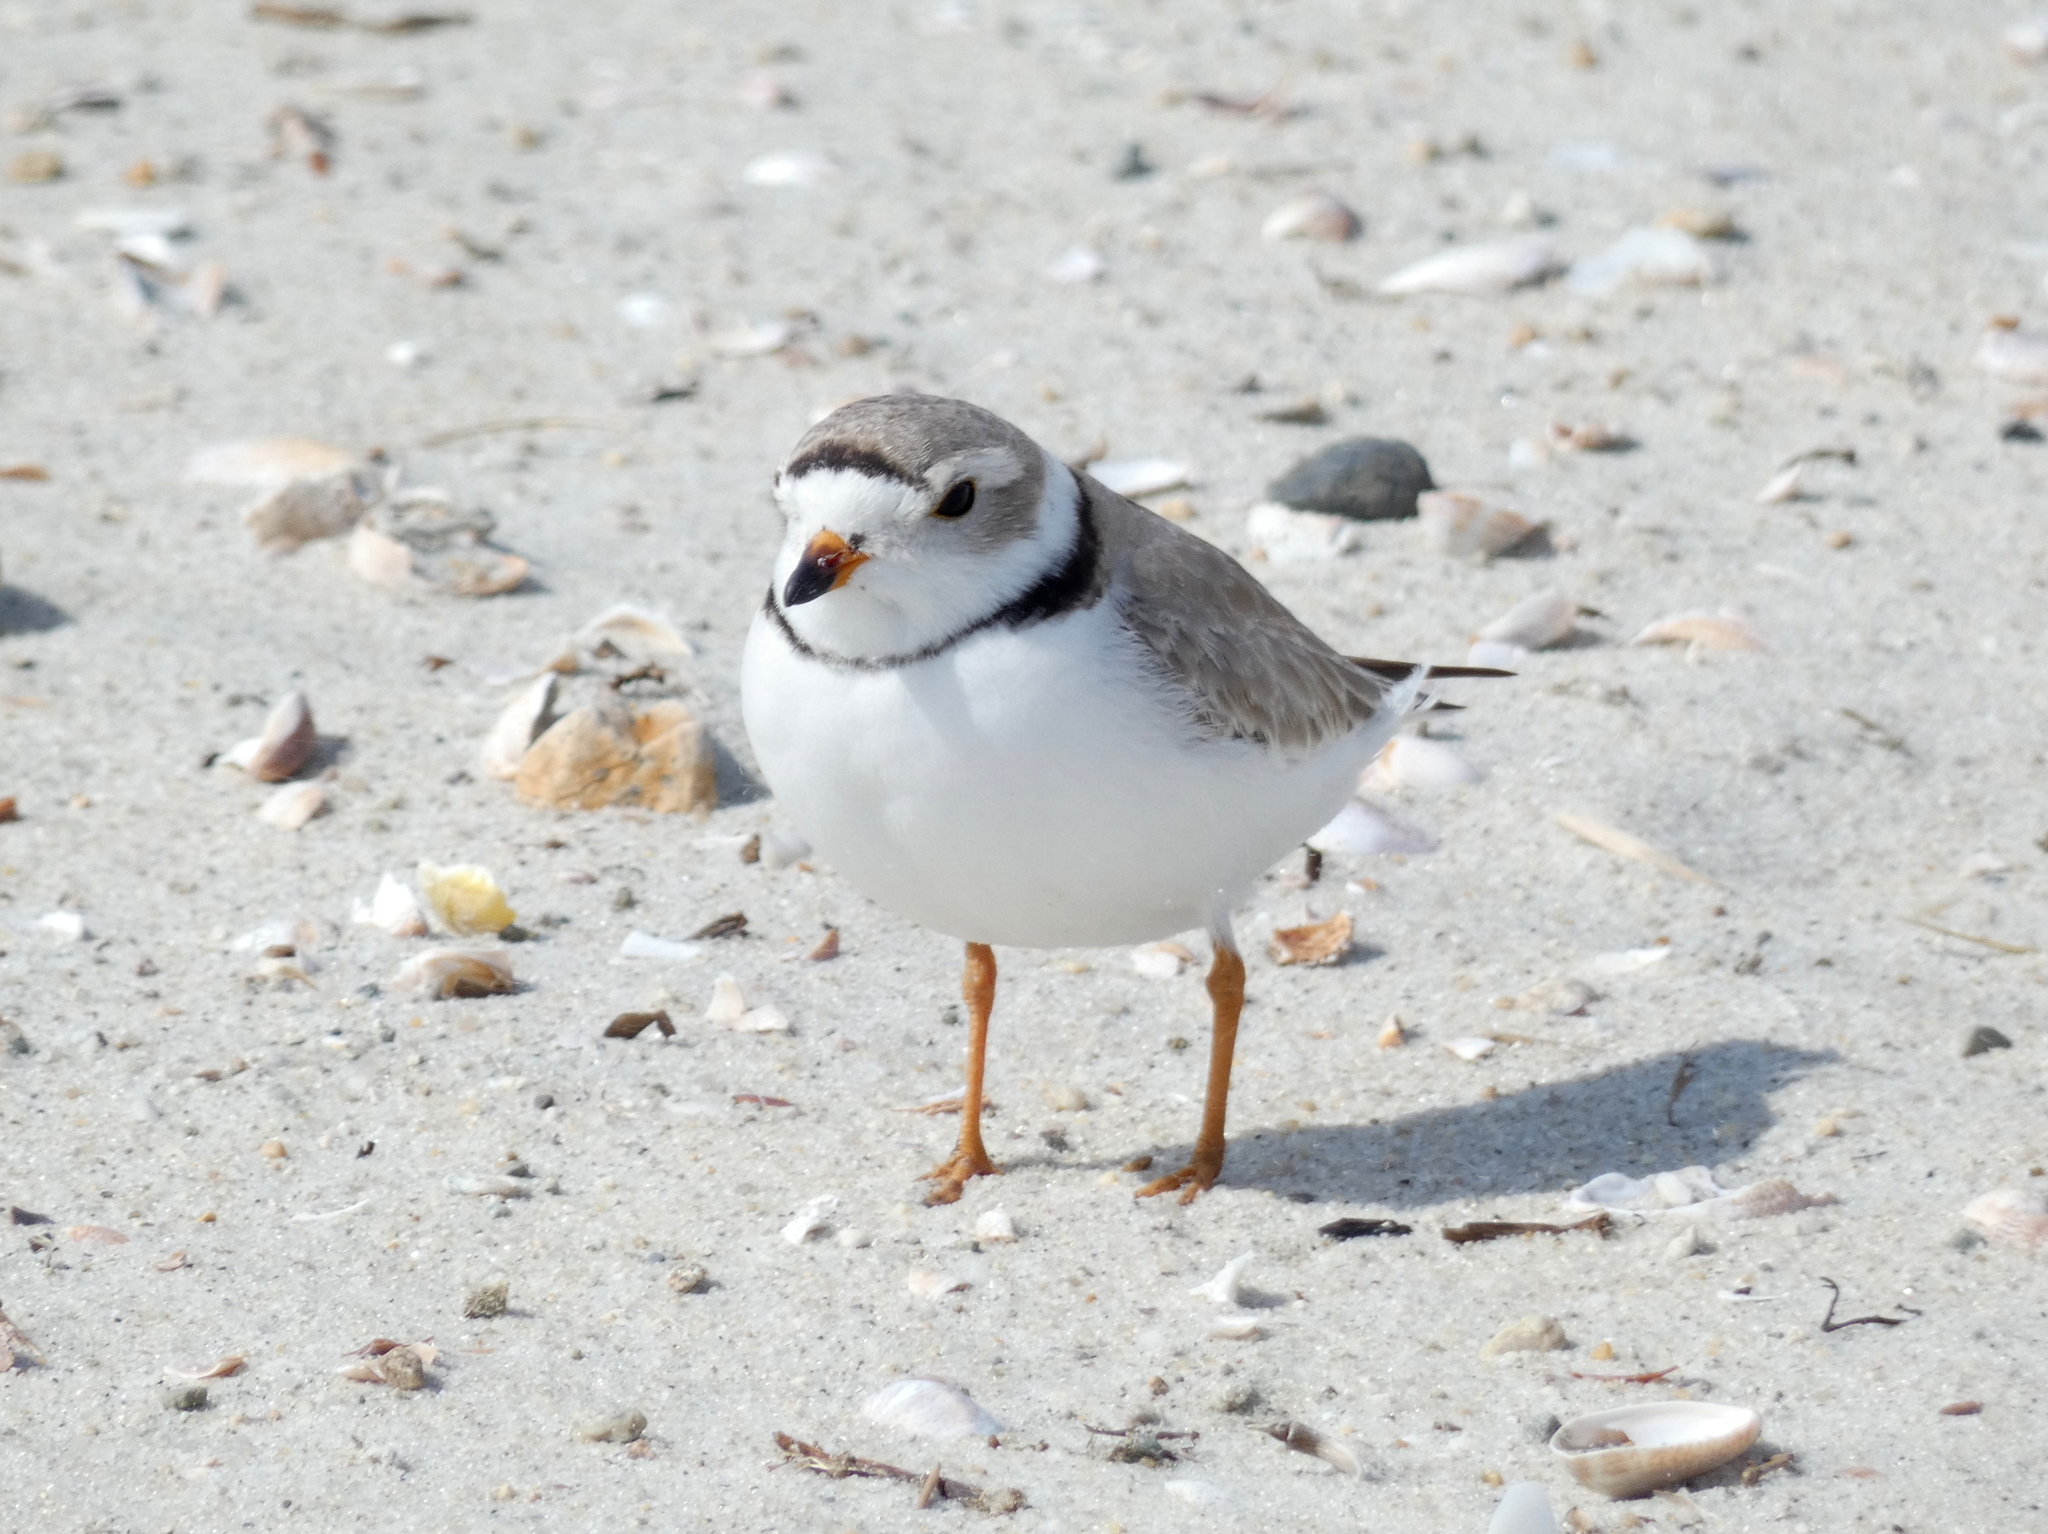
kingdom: Animalia
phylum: Chordata
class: Aves
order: Charadriiformes
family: Charadriidae
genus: Charadrius
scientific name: Charadrius melodus
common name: Piping plover
